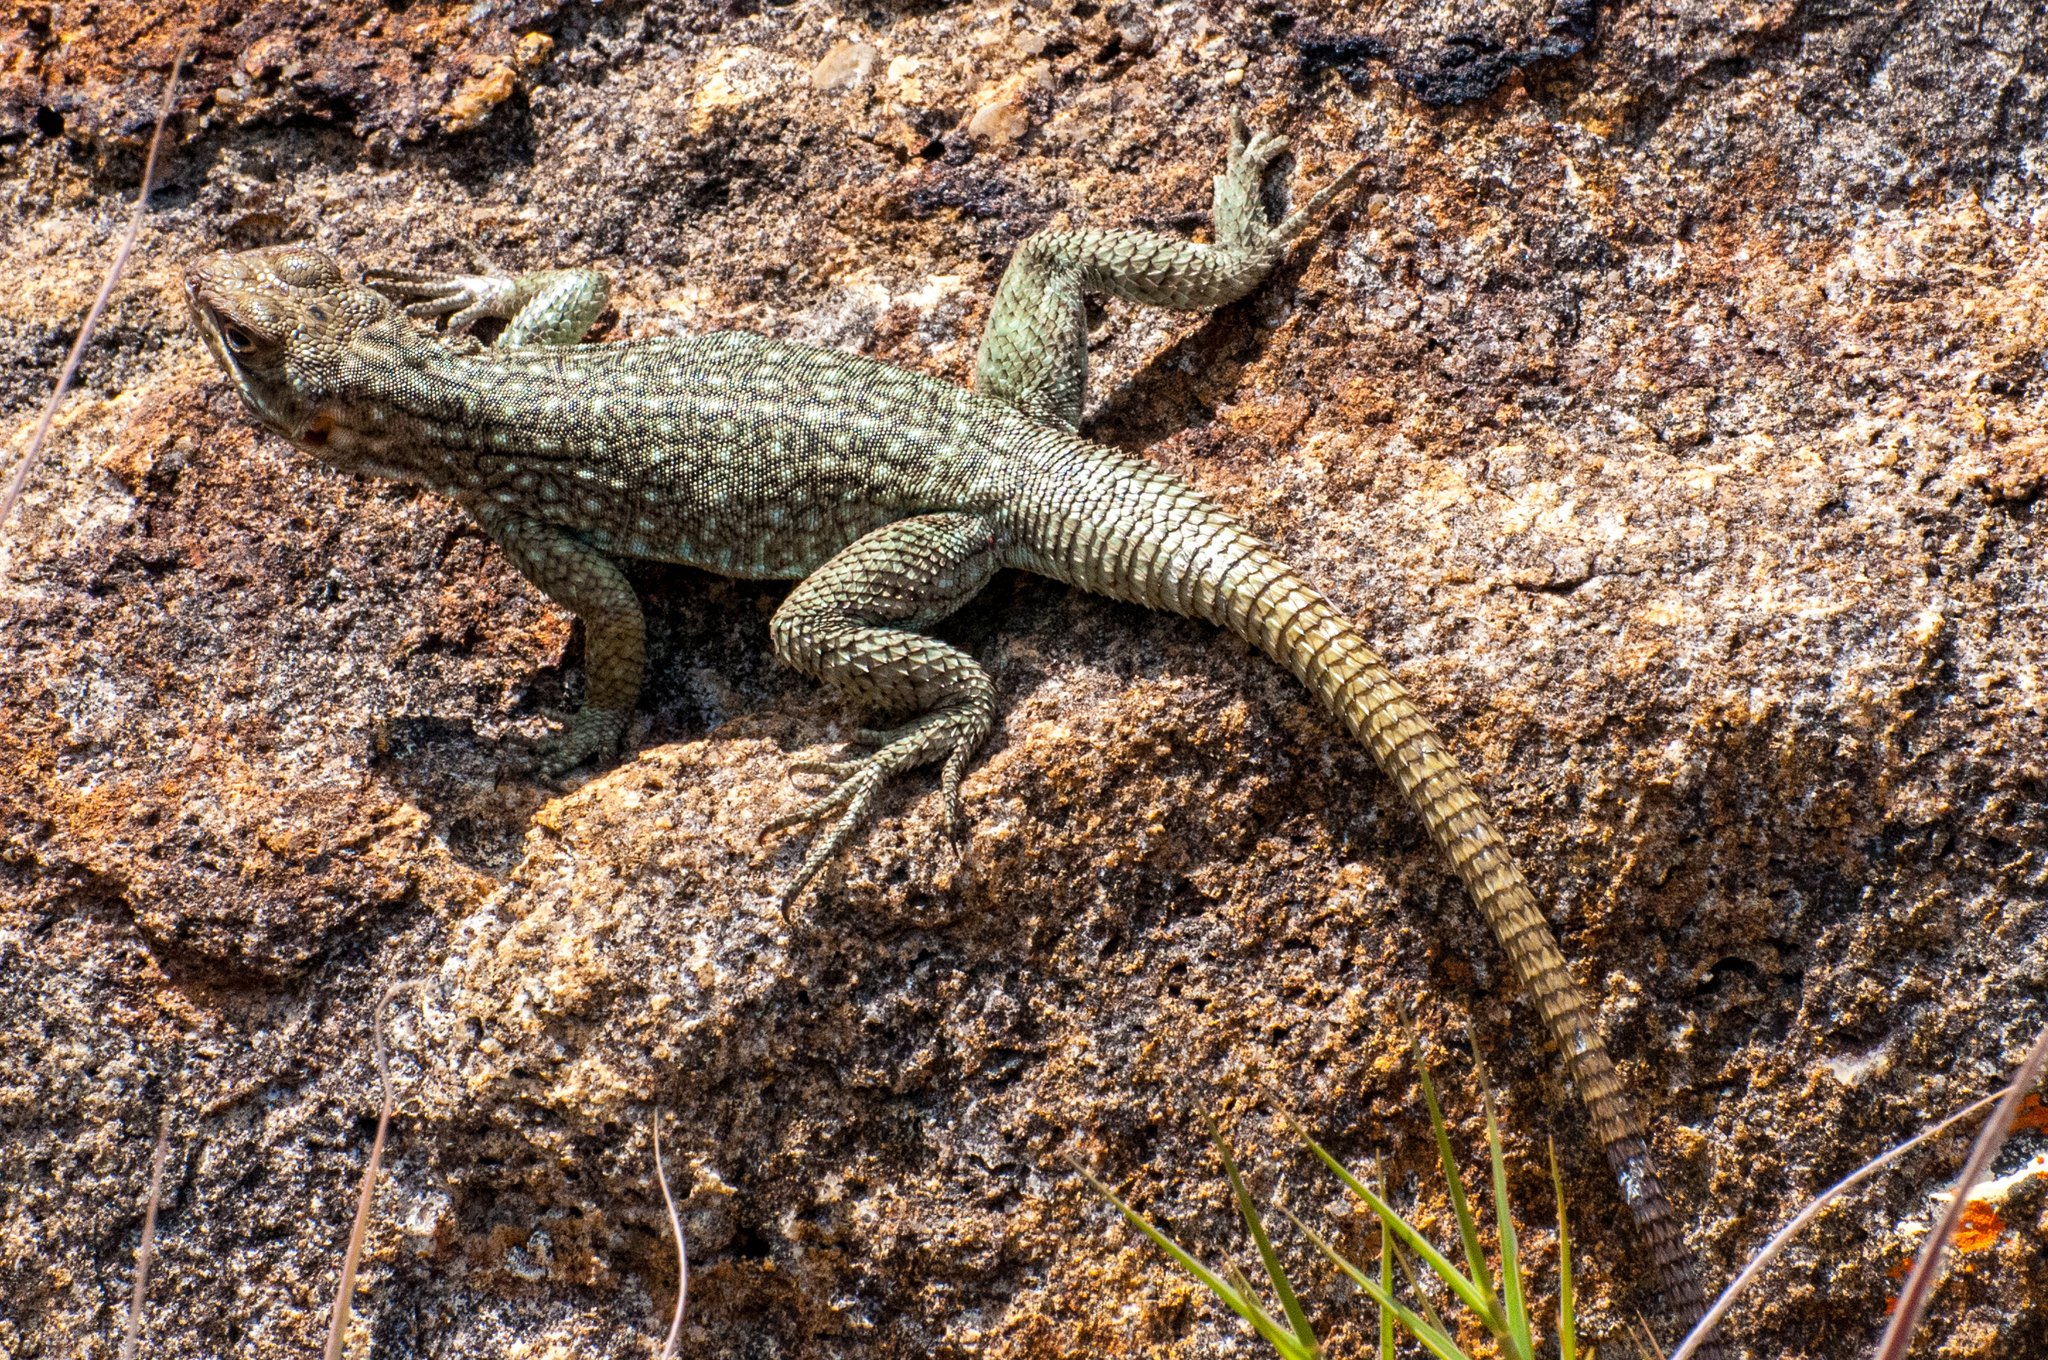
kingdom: Animalia
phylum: Chordata
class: Squamata
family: Opluridae
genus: Oplurus
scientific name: Oplurus quadrimaculatus
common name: Duméril's madagascar swift
